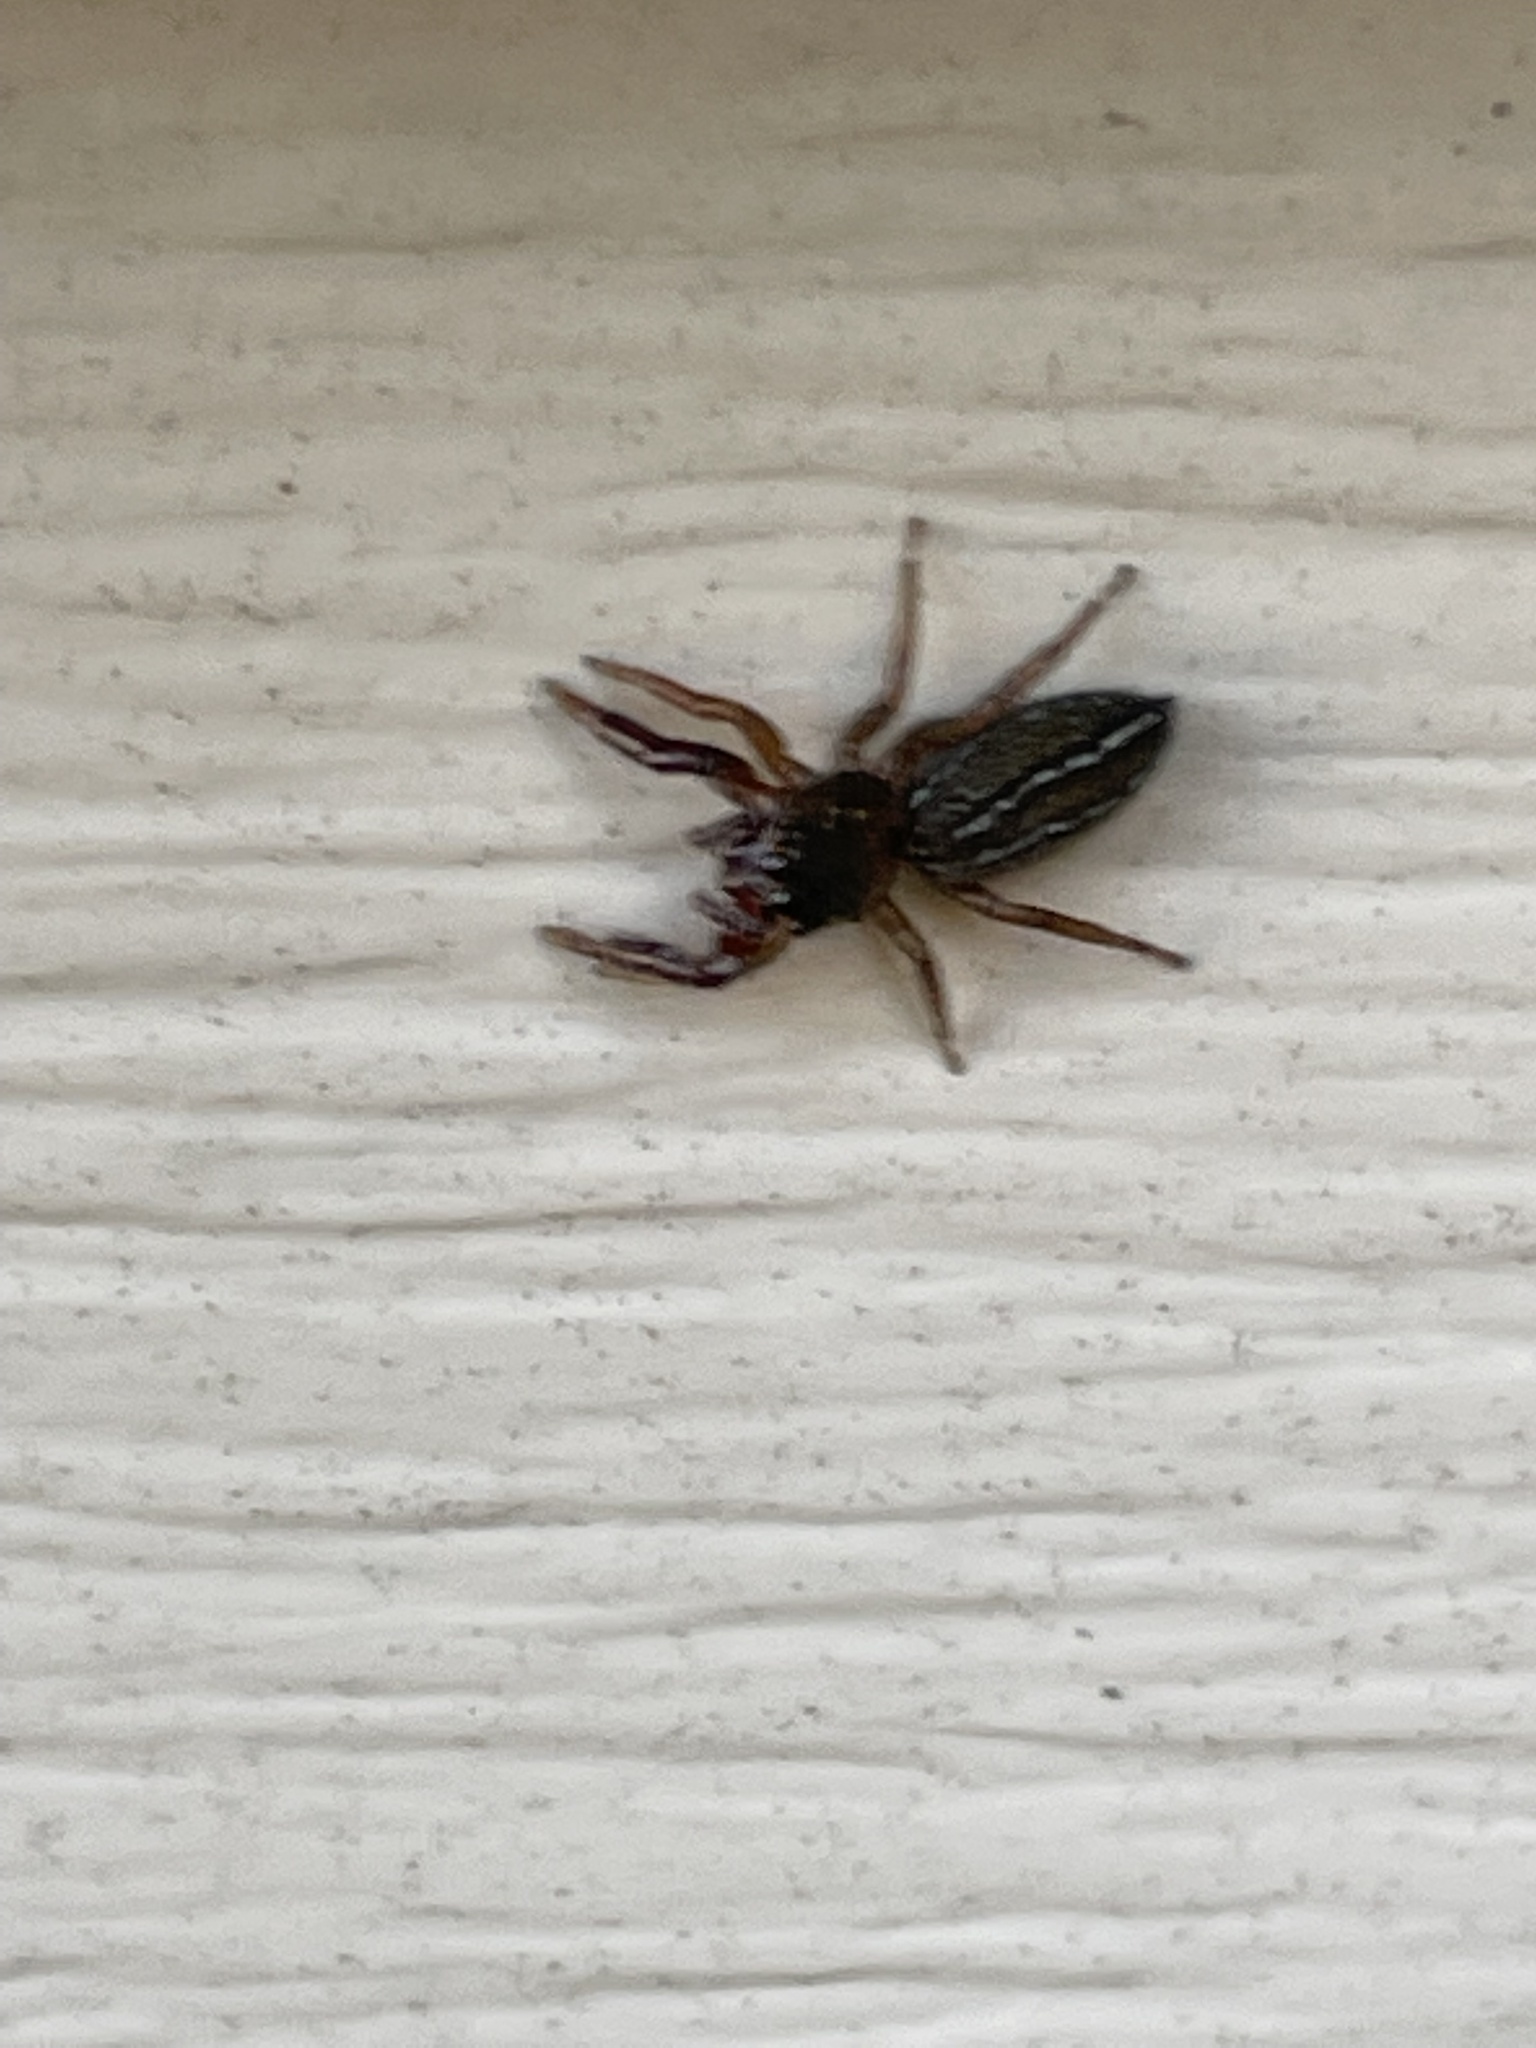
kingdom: Animalia
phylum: Arthropoda
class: Arachnida
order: Araneae
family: Salticidae
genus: Marpissa
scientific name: Marpissa lineata
